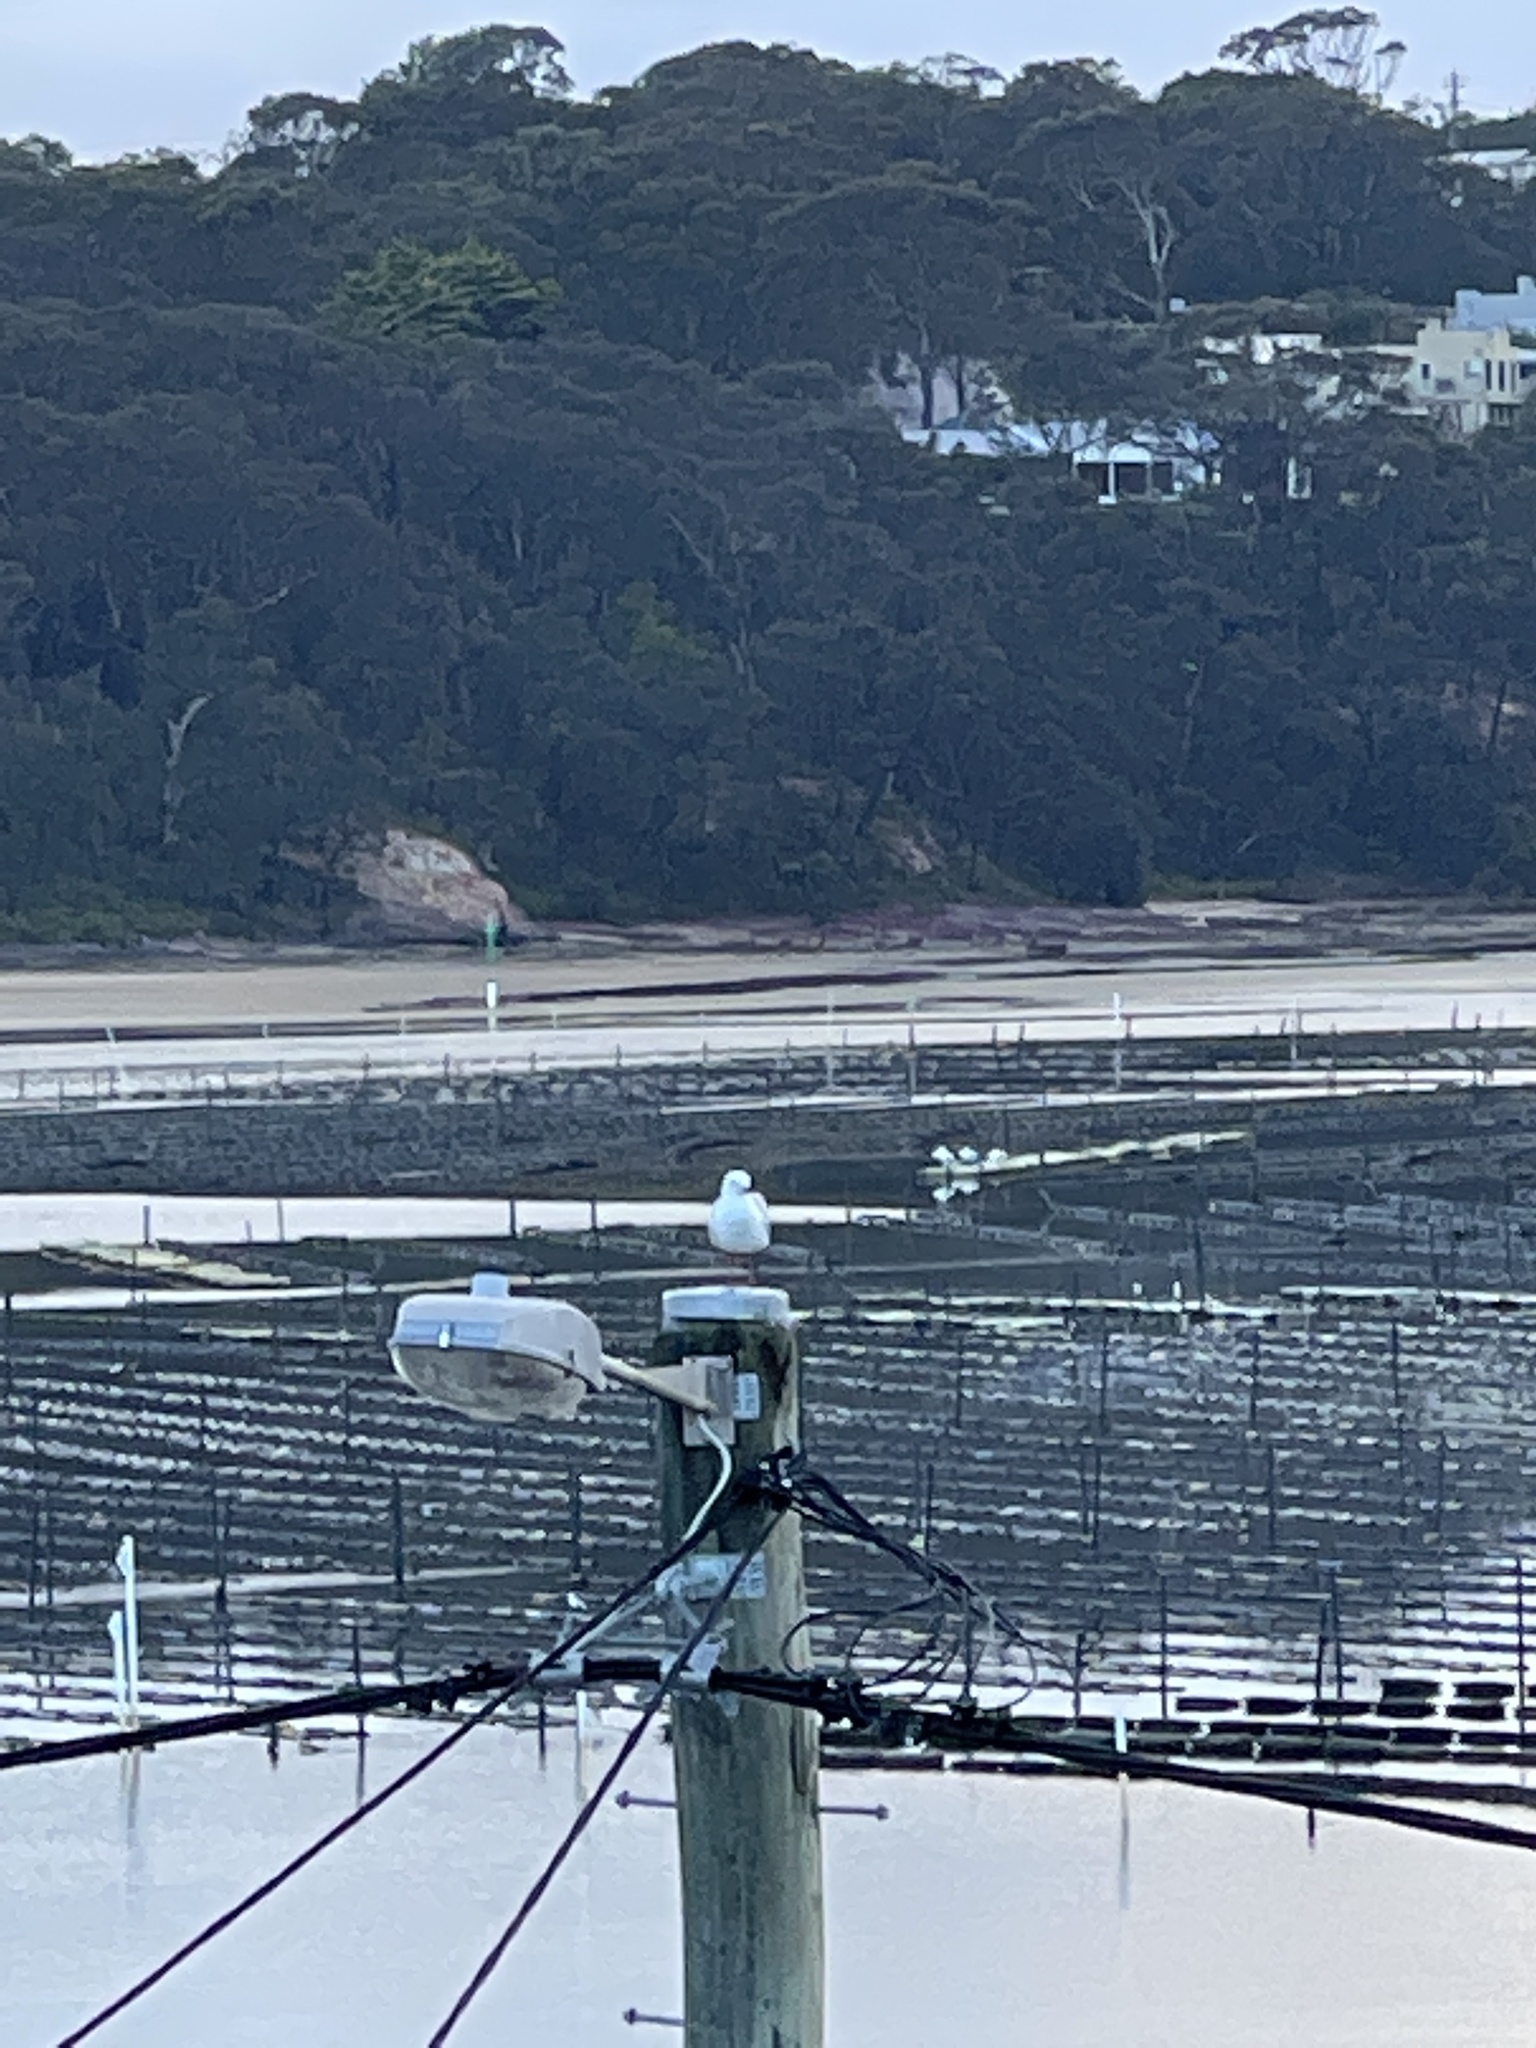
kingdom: Animalia
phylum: Chordata
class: Aves
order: Charadriiformes
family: Laridae
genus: Chroicocephalus
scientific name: Chroicocephalus novaehollandiae
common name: Silver gull
